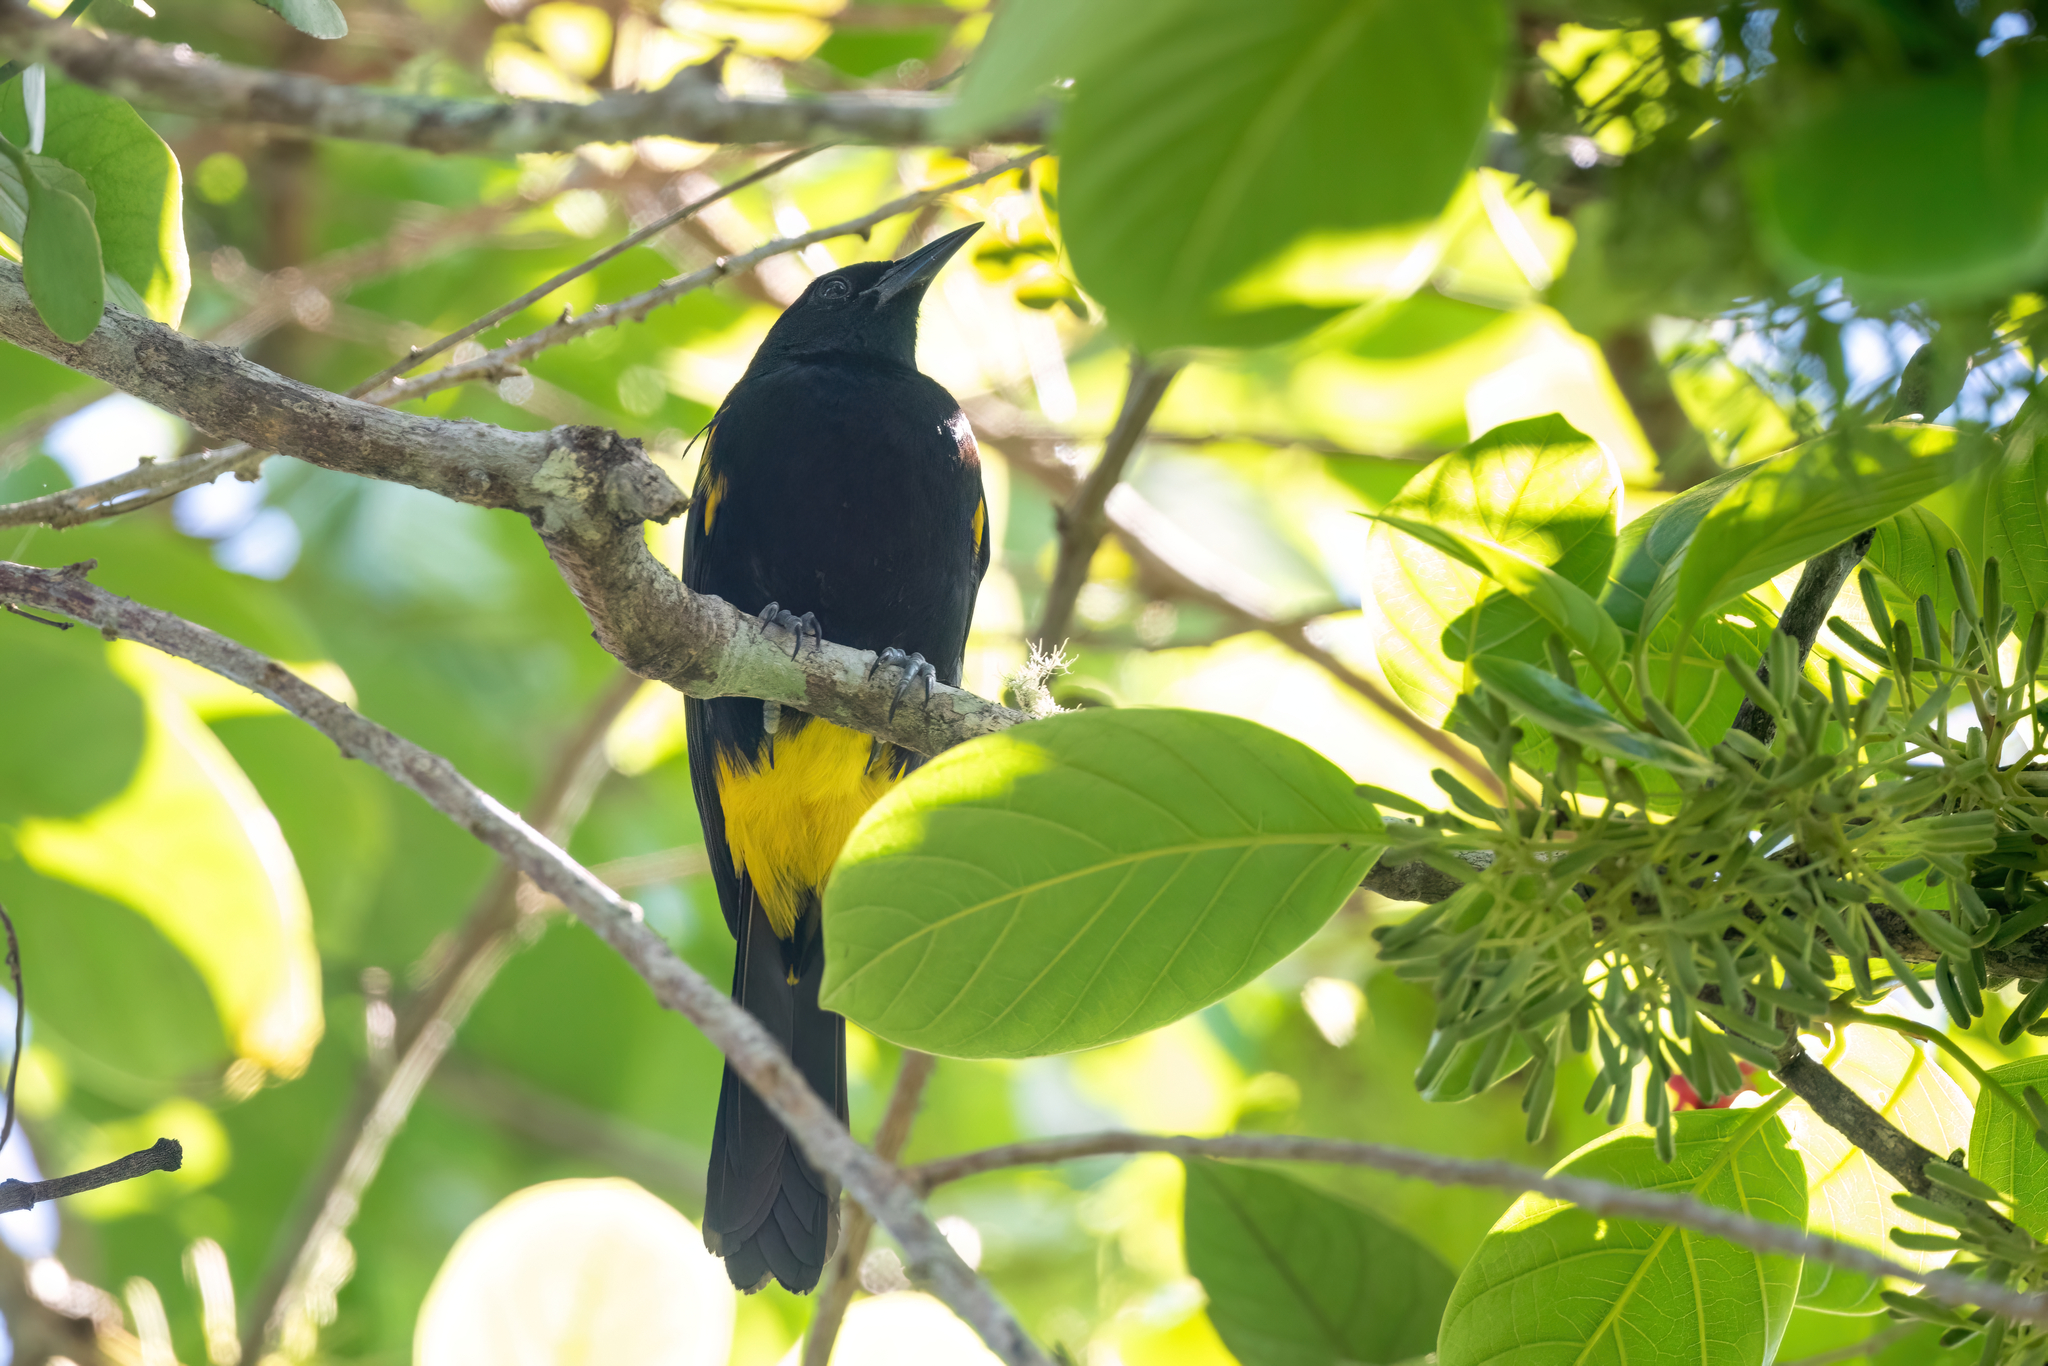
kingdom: Animalia
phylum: Chordata
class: Aves
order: Passeriformes
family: Icteridae
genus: Icterus
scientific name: Icterus portoricensis
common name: Puerto rican oriole
